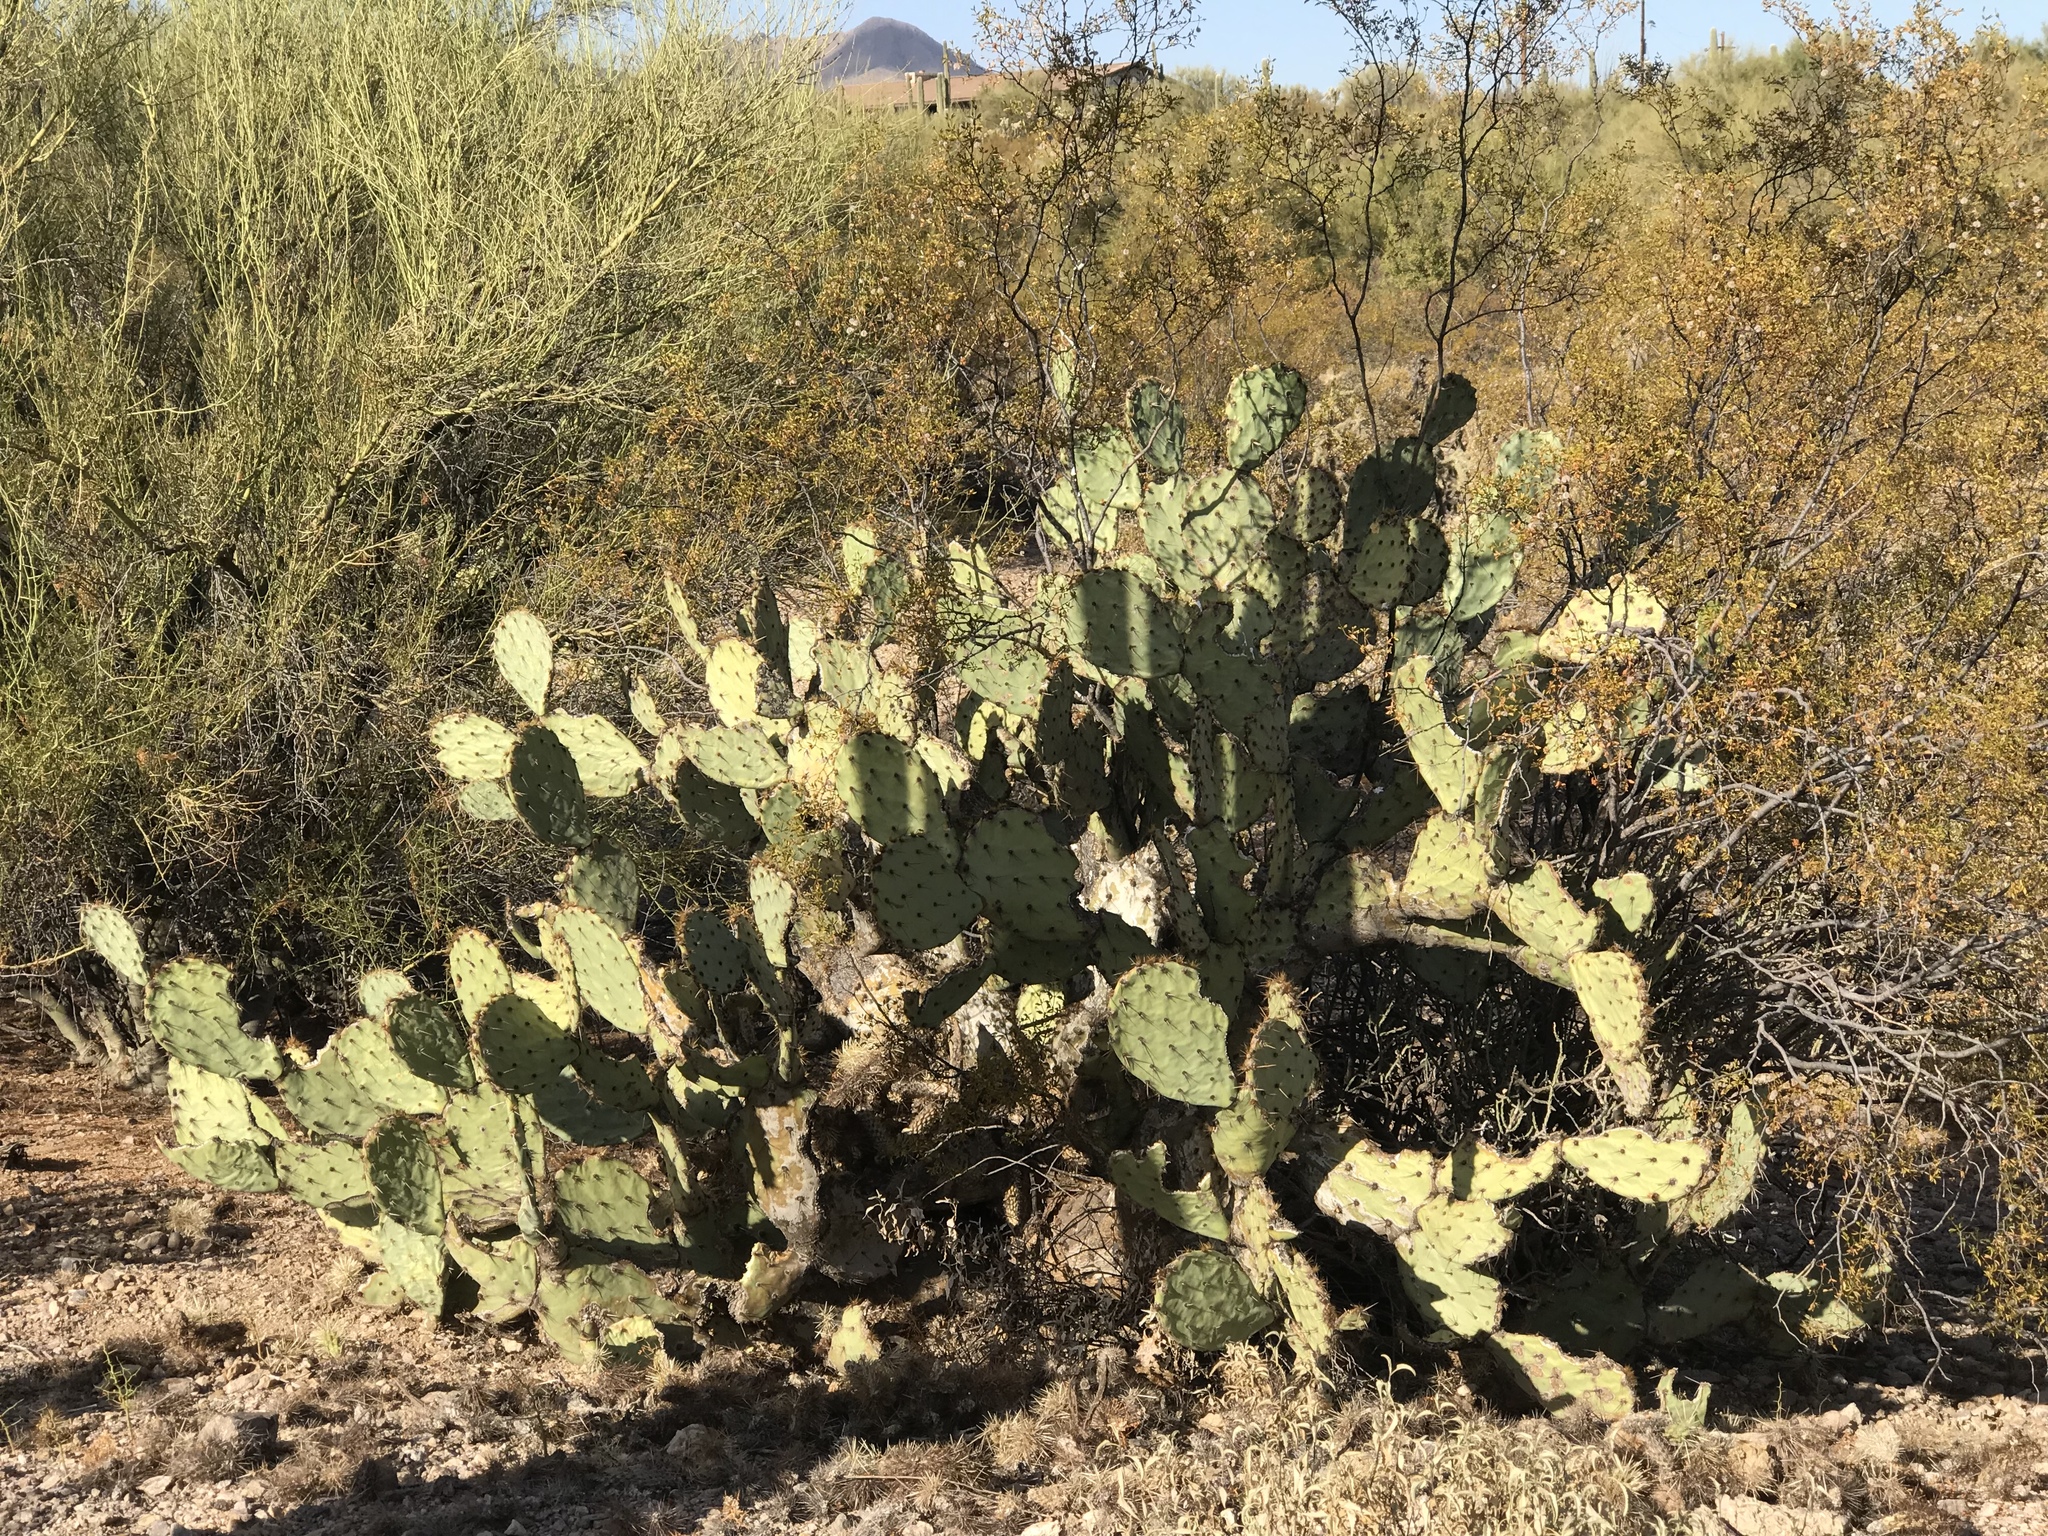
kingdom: Plantae
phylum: Tracheophyta
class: Magnoliopsida
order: Caryophyllales
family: Cactaceae
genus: Opuntia
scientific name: Opuntia engelmannii
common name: Cactus-apple
